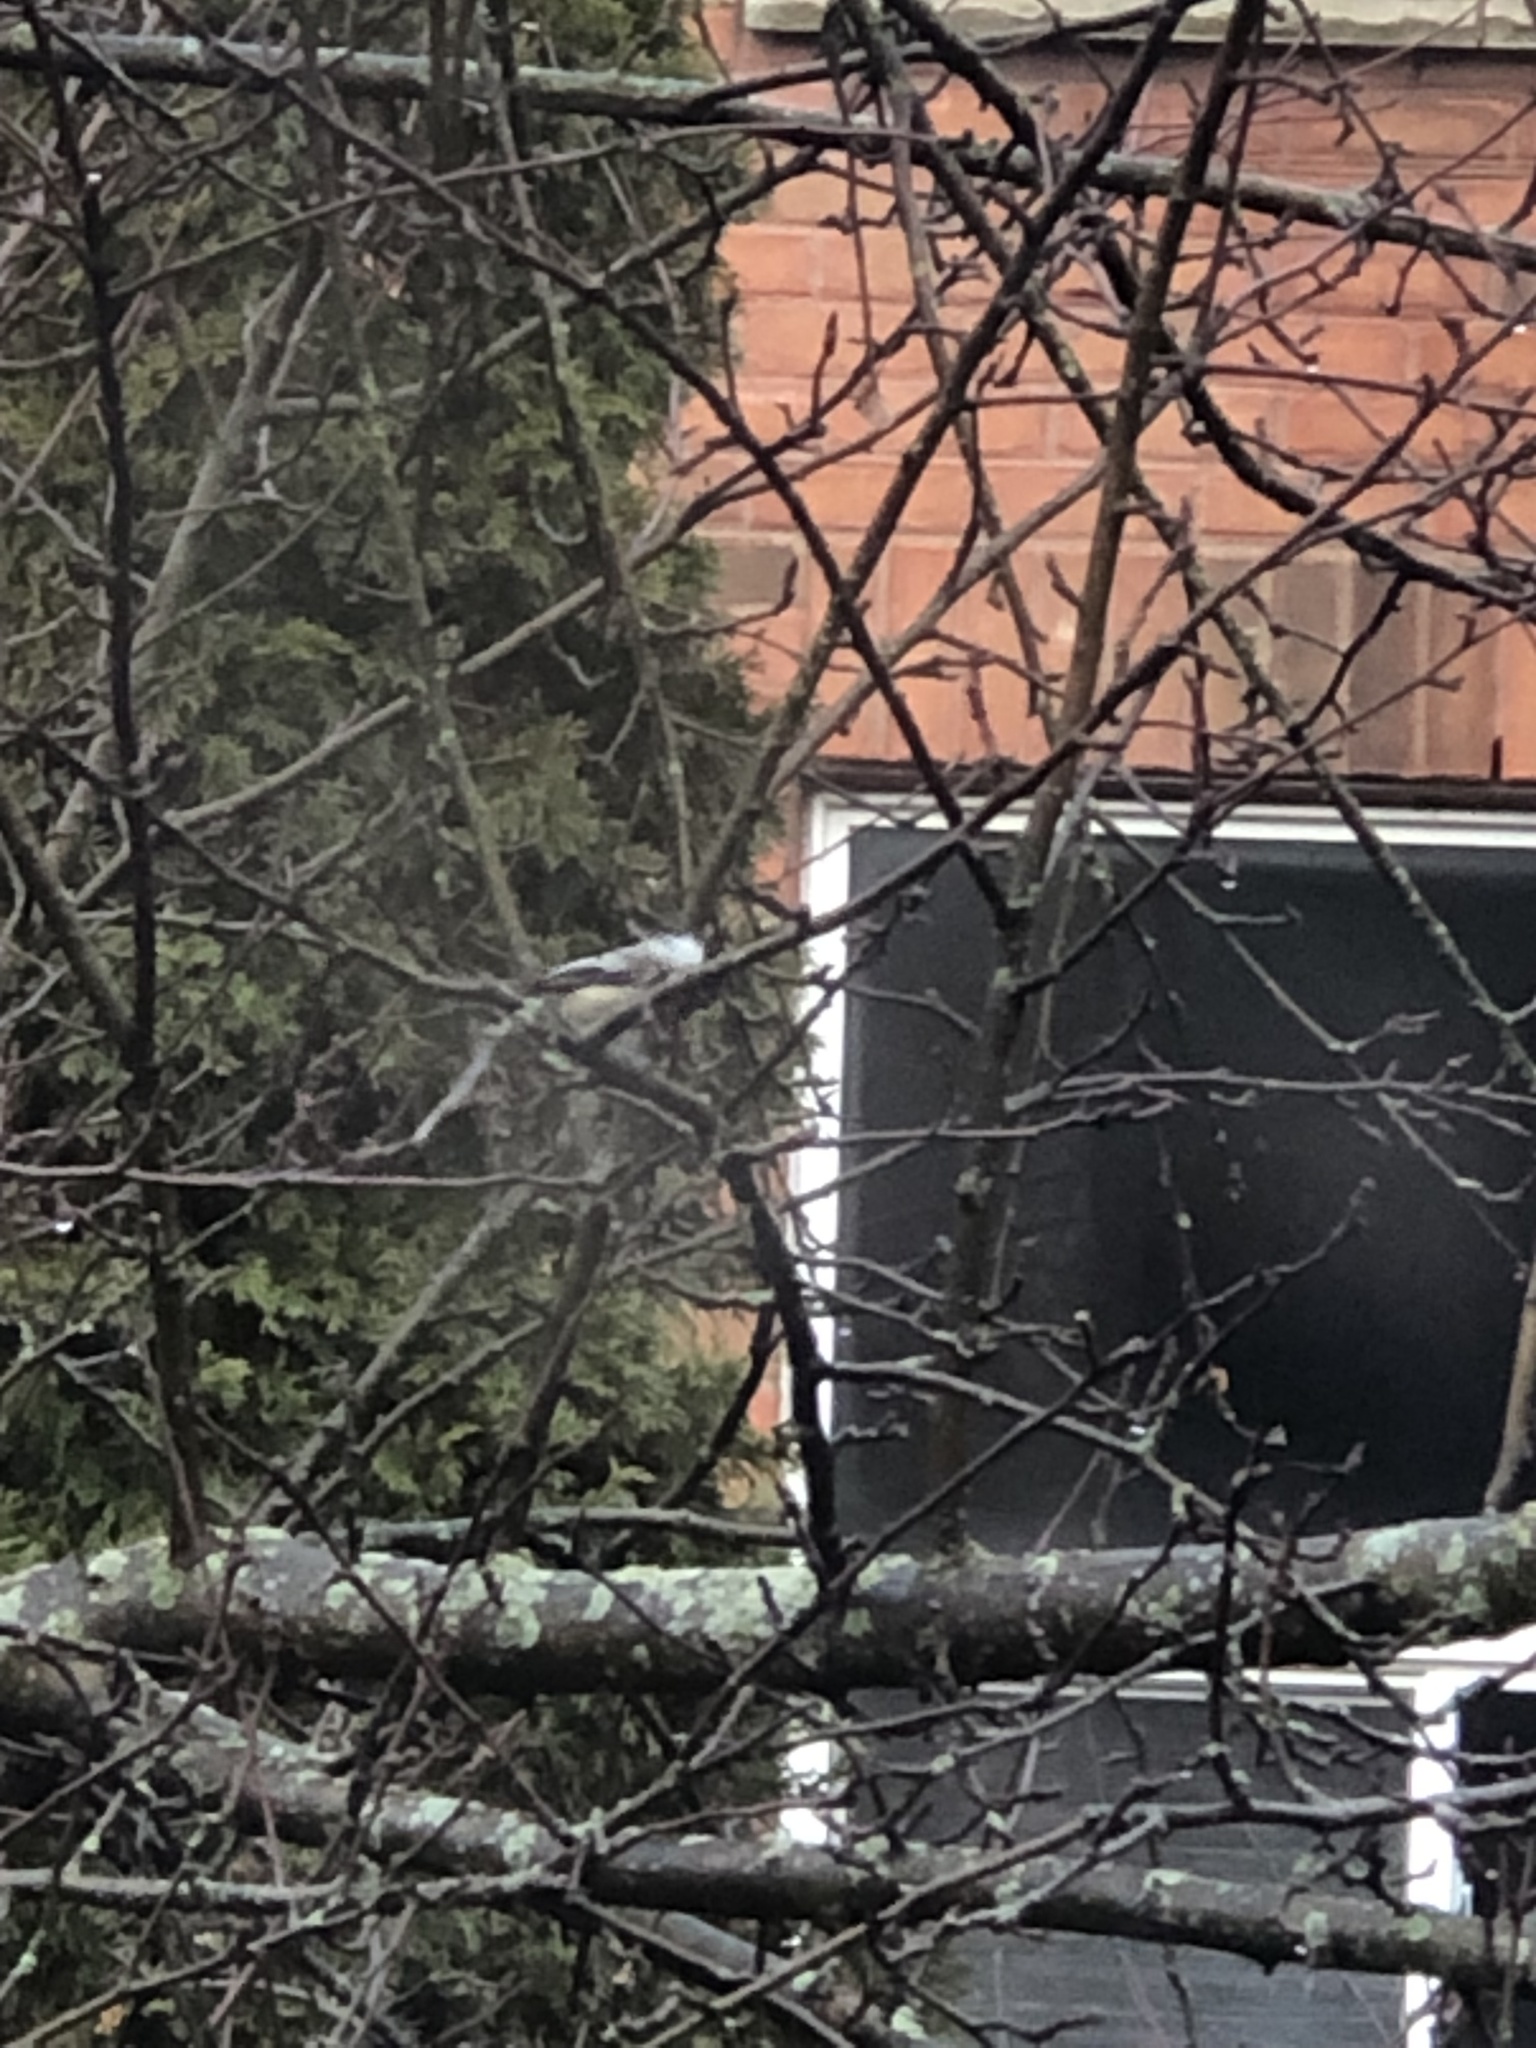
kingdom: Animalia
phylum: Chordata
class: Aves
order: Passeriformes
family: Paridae
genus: Poecile
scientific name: Poecile atricapillus
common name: Black-capped chickadee
